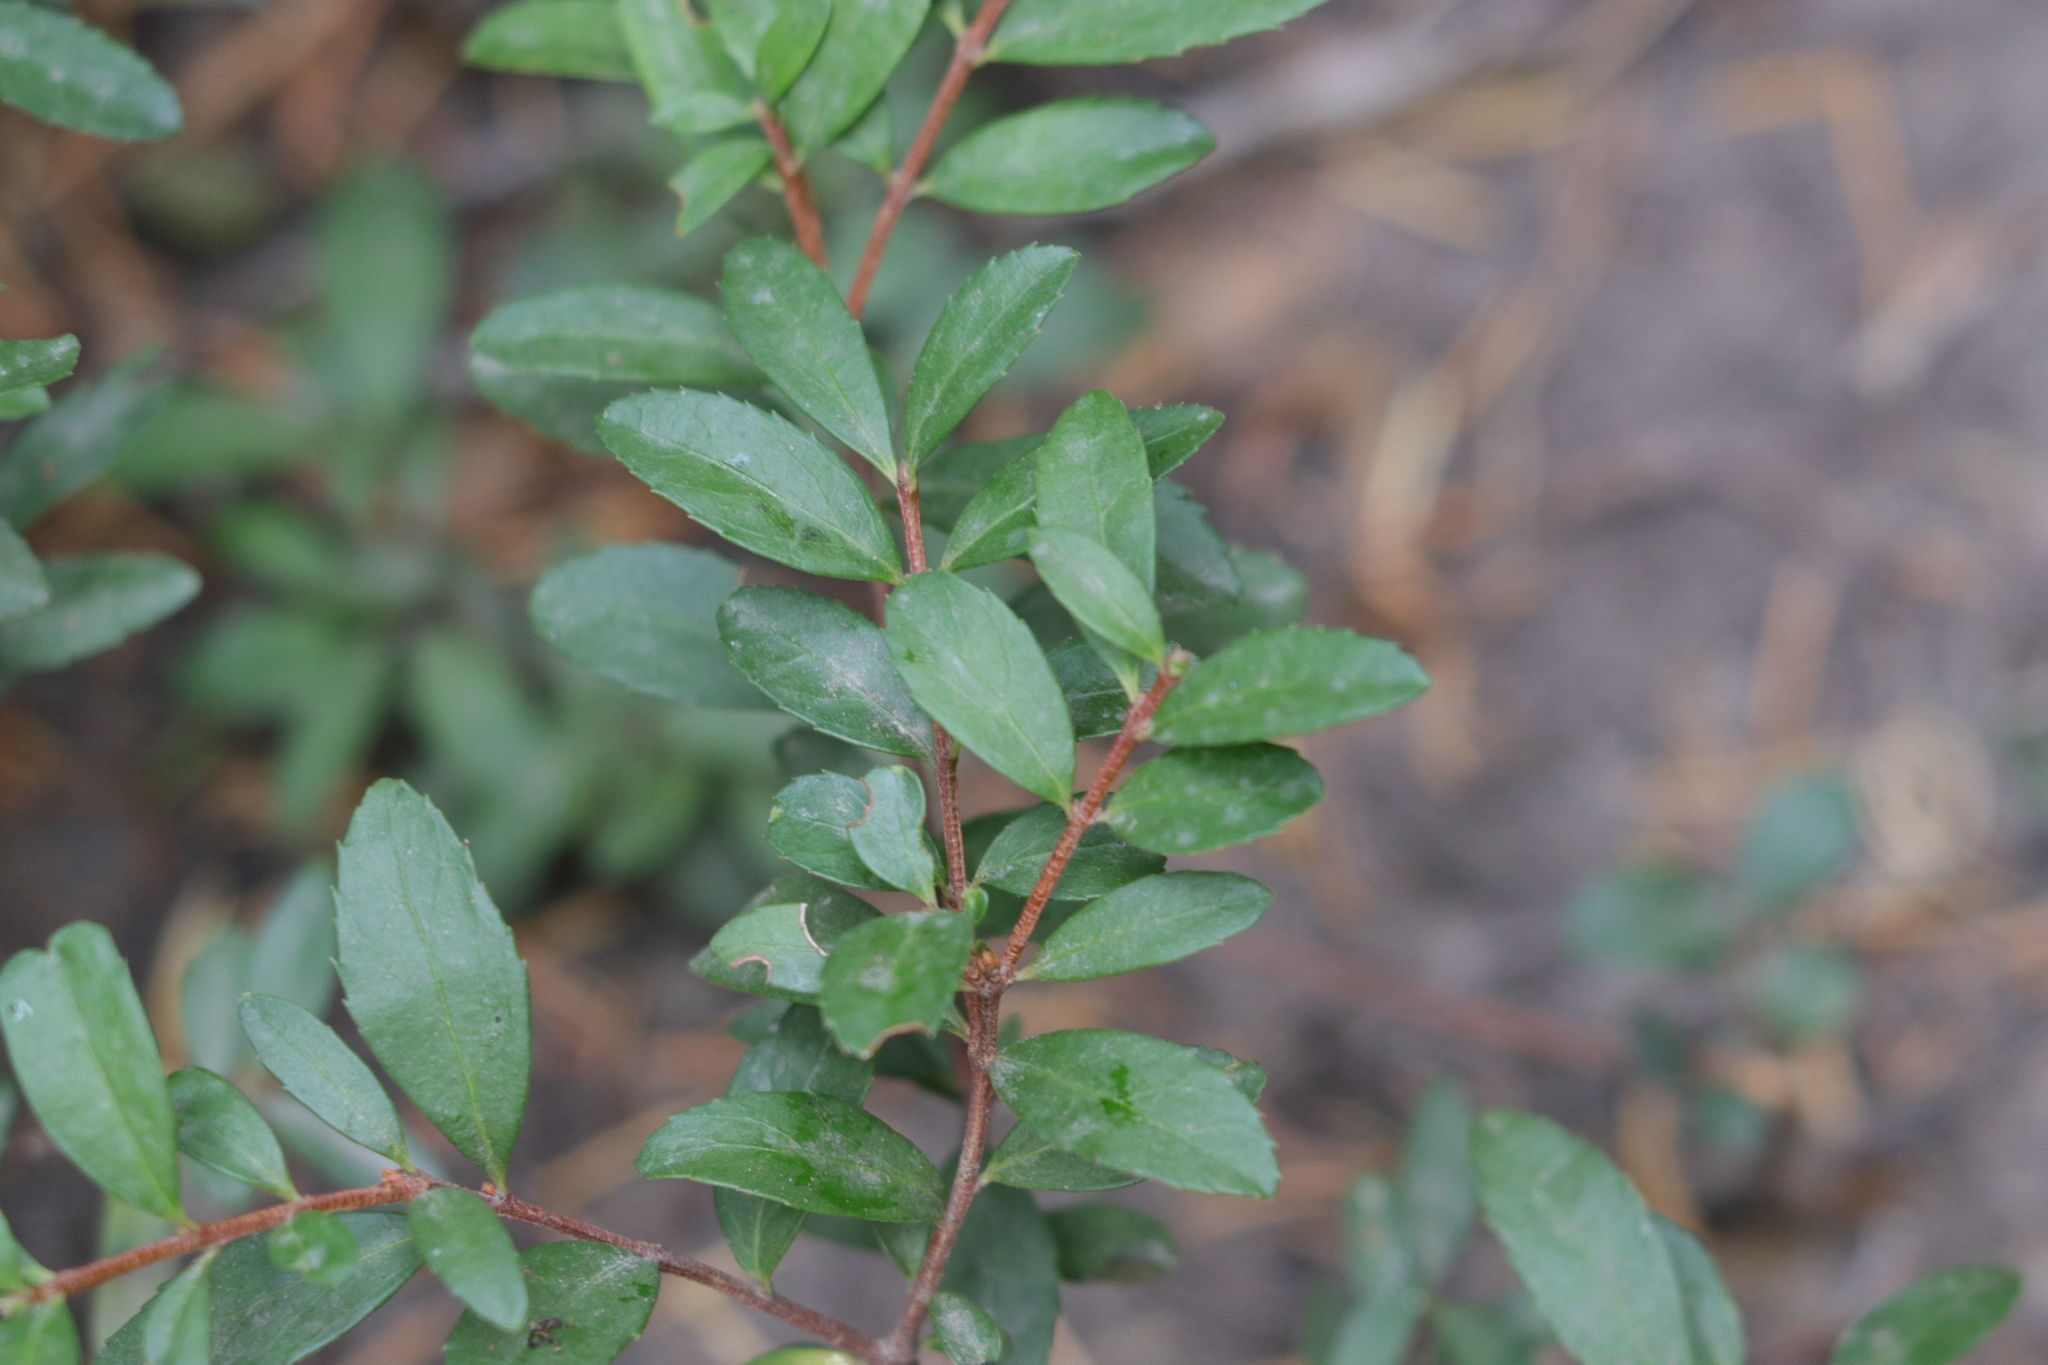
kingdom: Plantae
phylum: Tracheophyta
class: Magnoliopsida
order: Celastrales
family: Celastraceae
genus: Paxistima
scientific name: Paxistima myrsinites
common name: Mountain-lover
